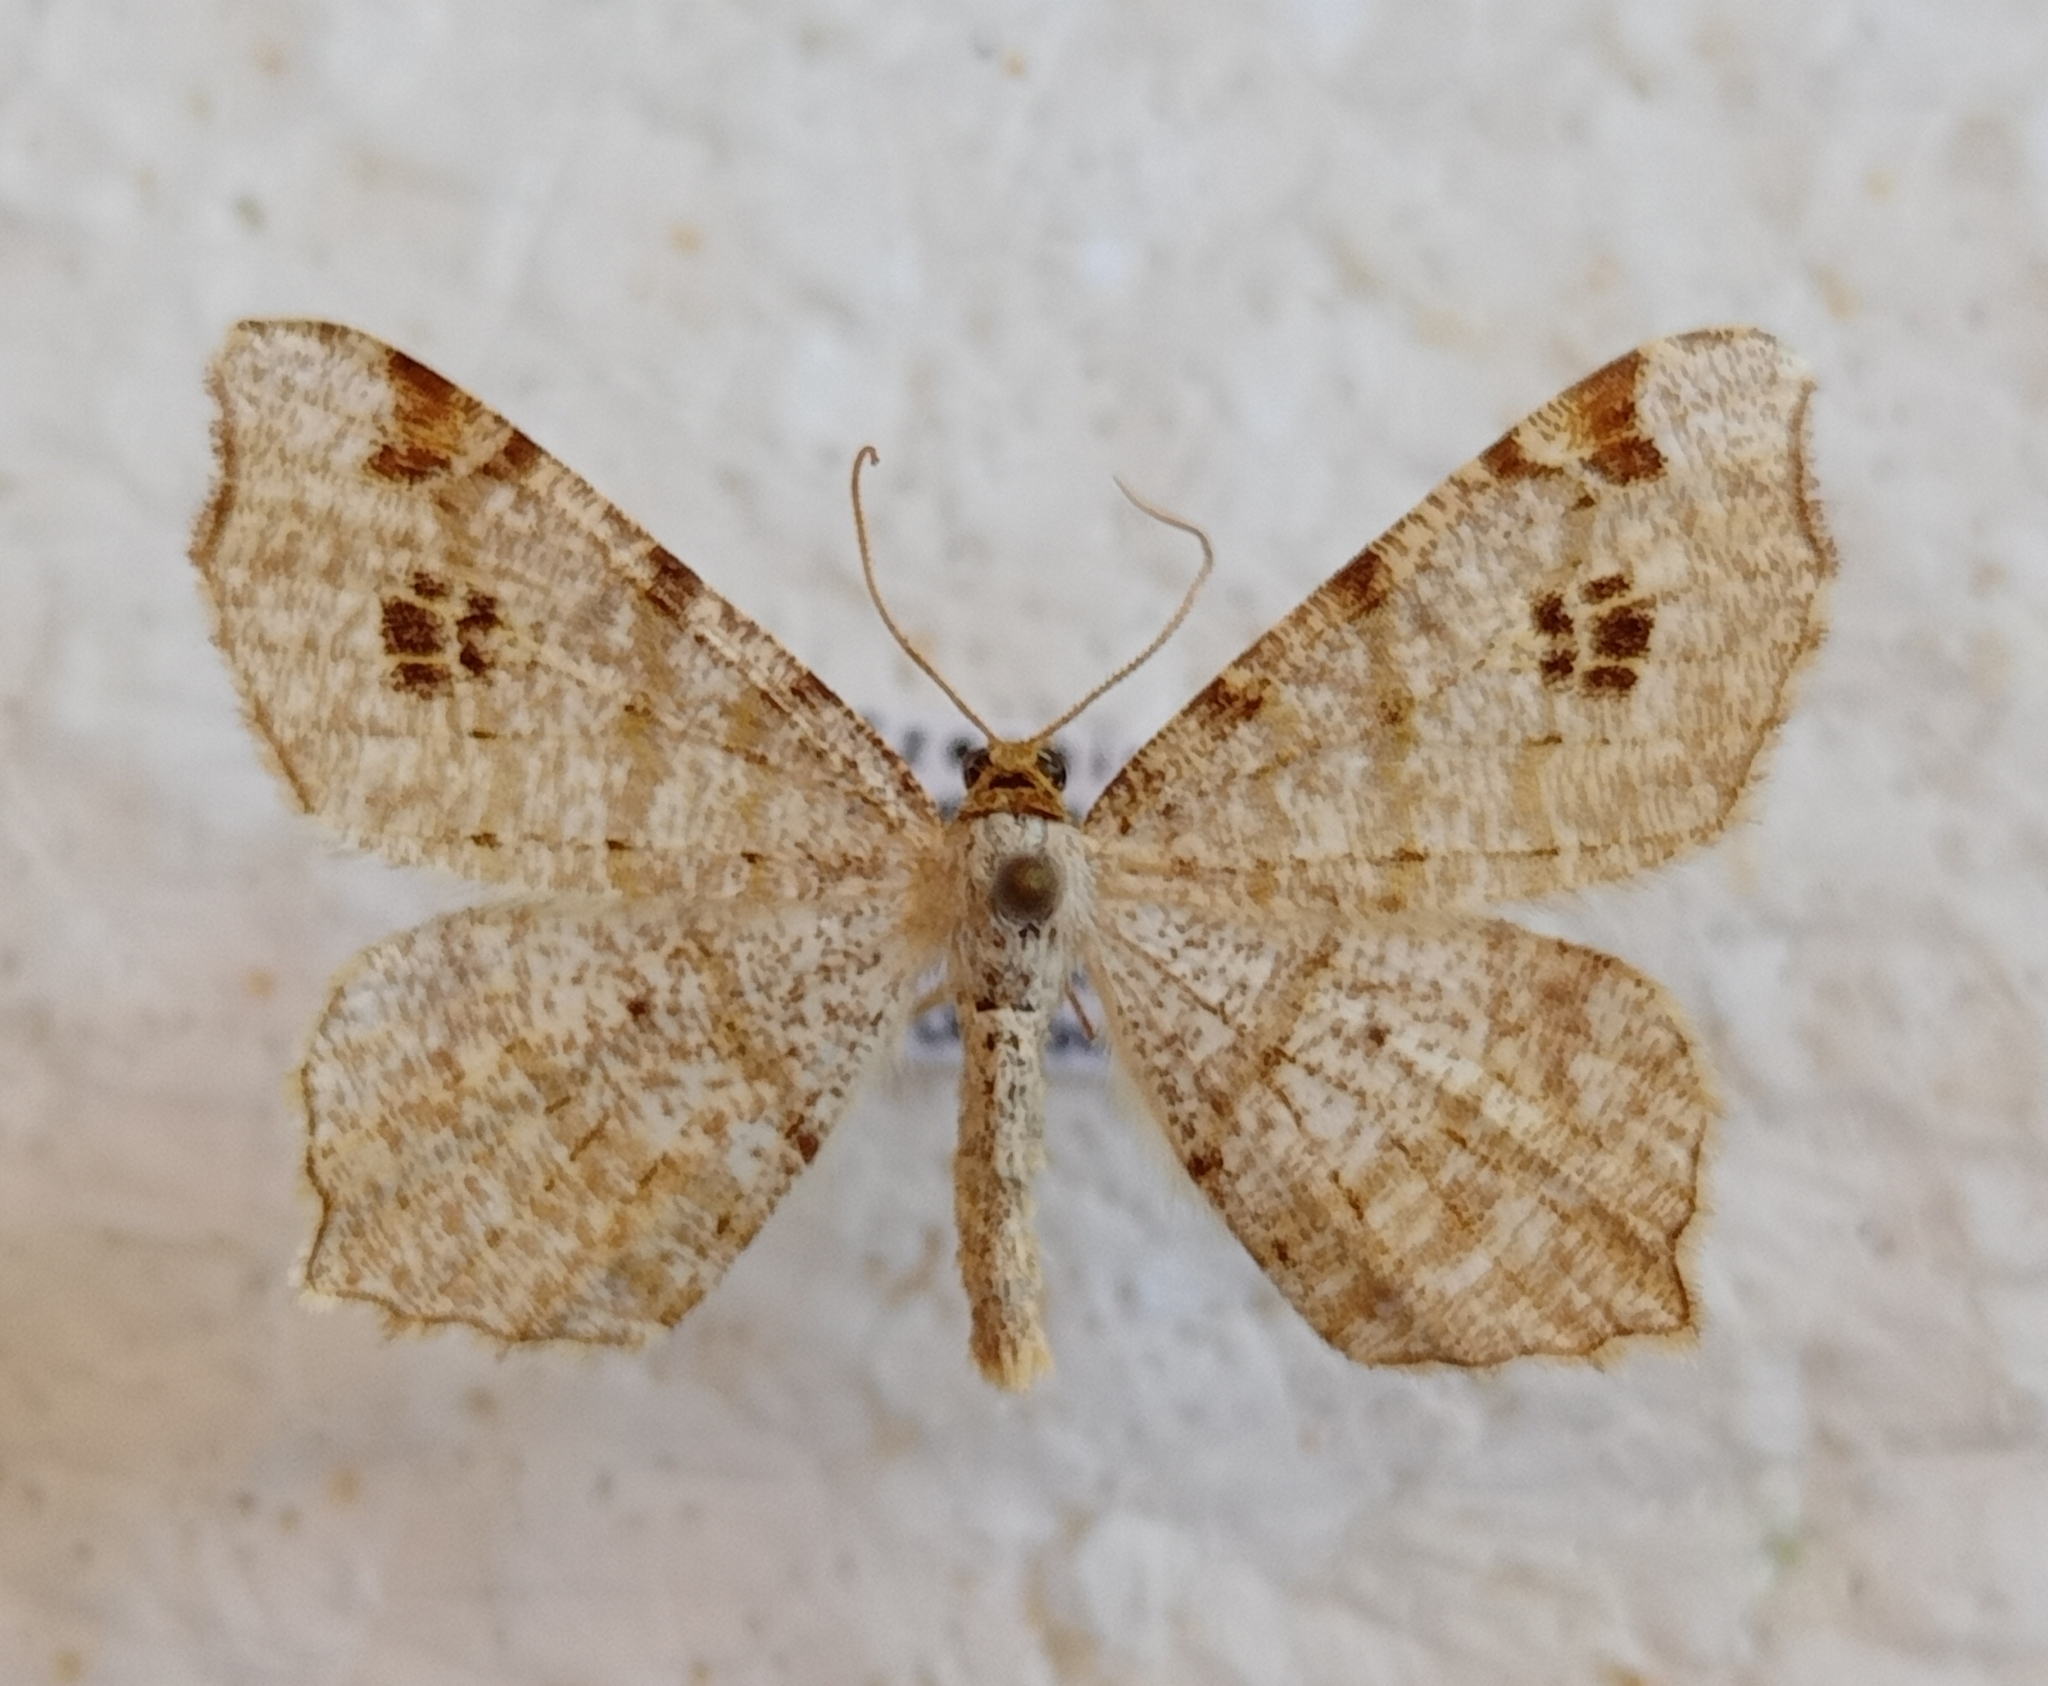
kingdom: Animalia
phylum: Arthropoda
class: Insecta
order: Lepidoptera
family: Geometridae
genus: Macaria
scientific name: Macaria notata
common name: Peacock moth
